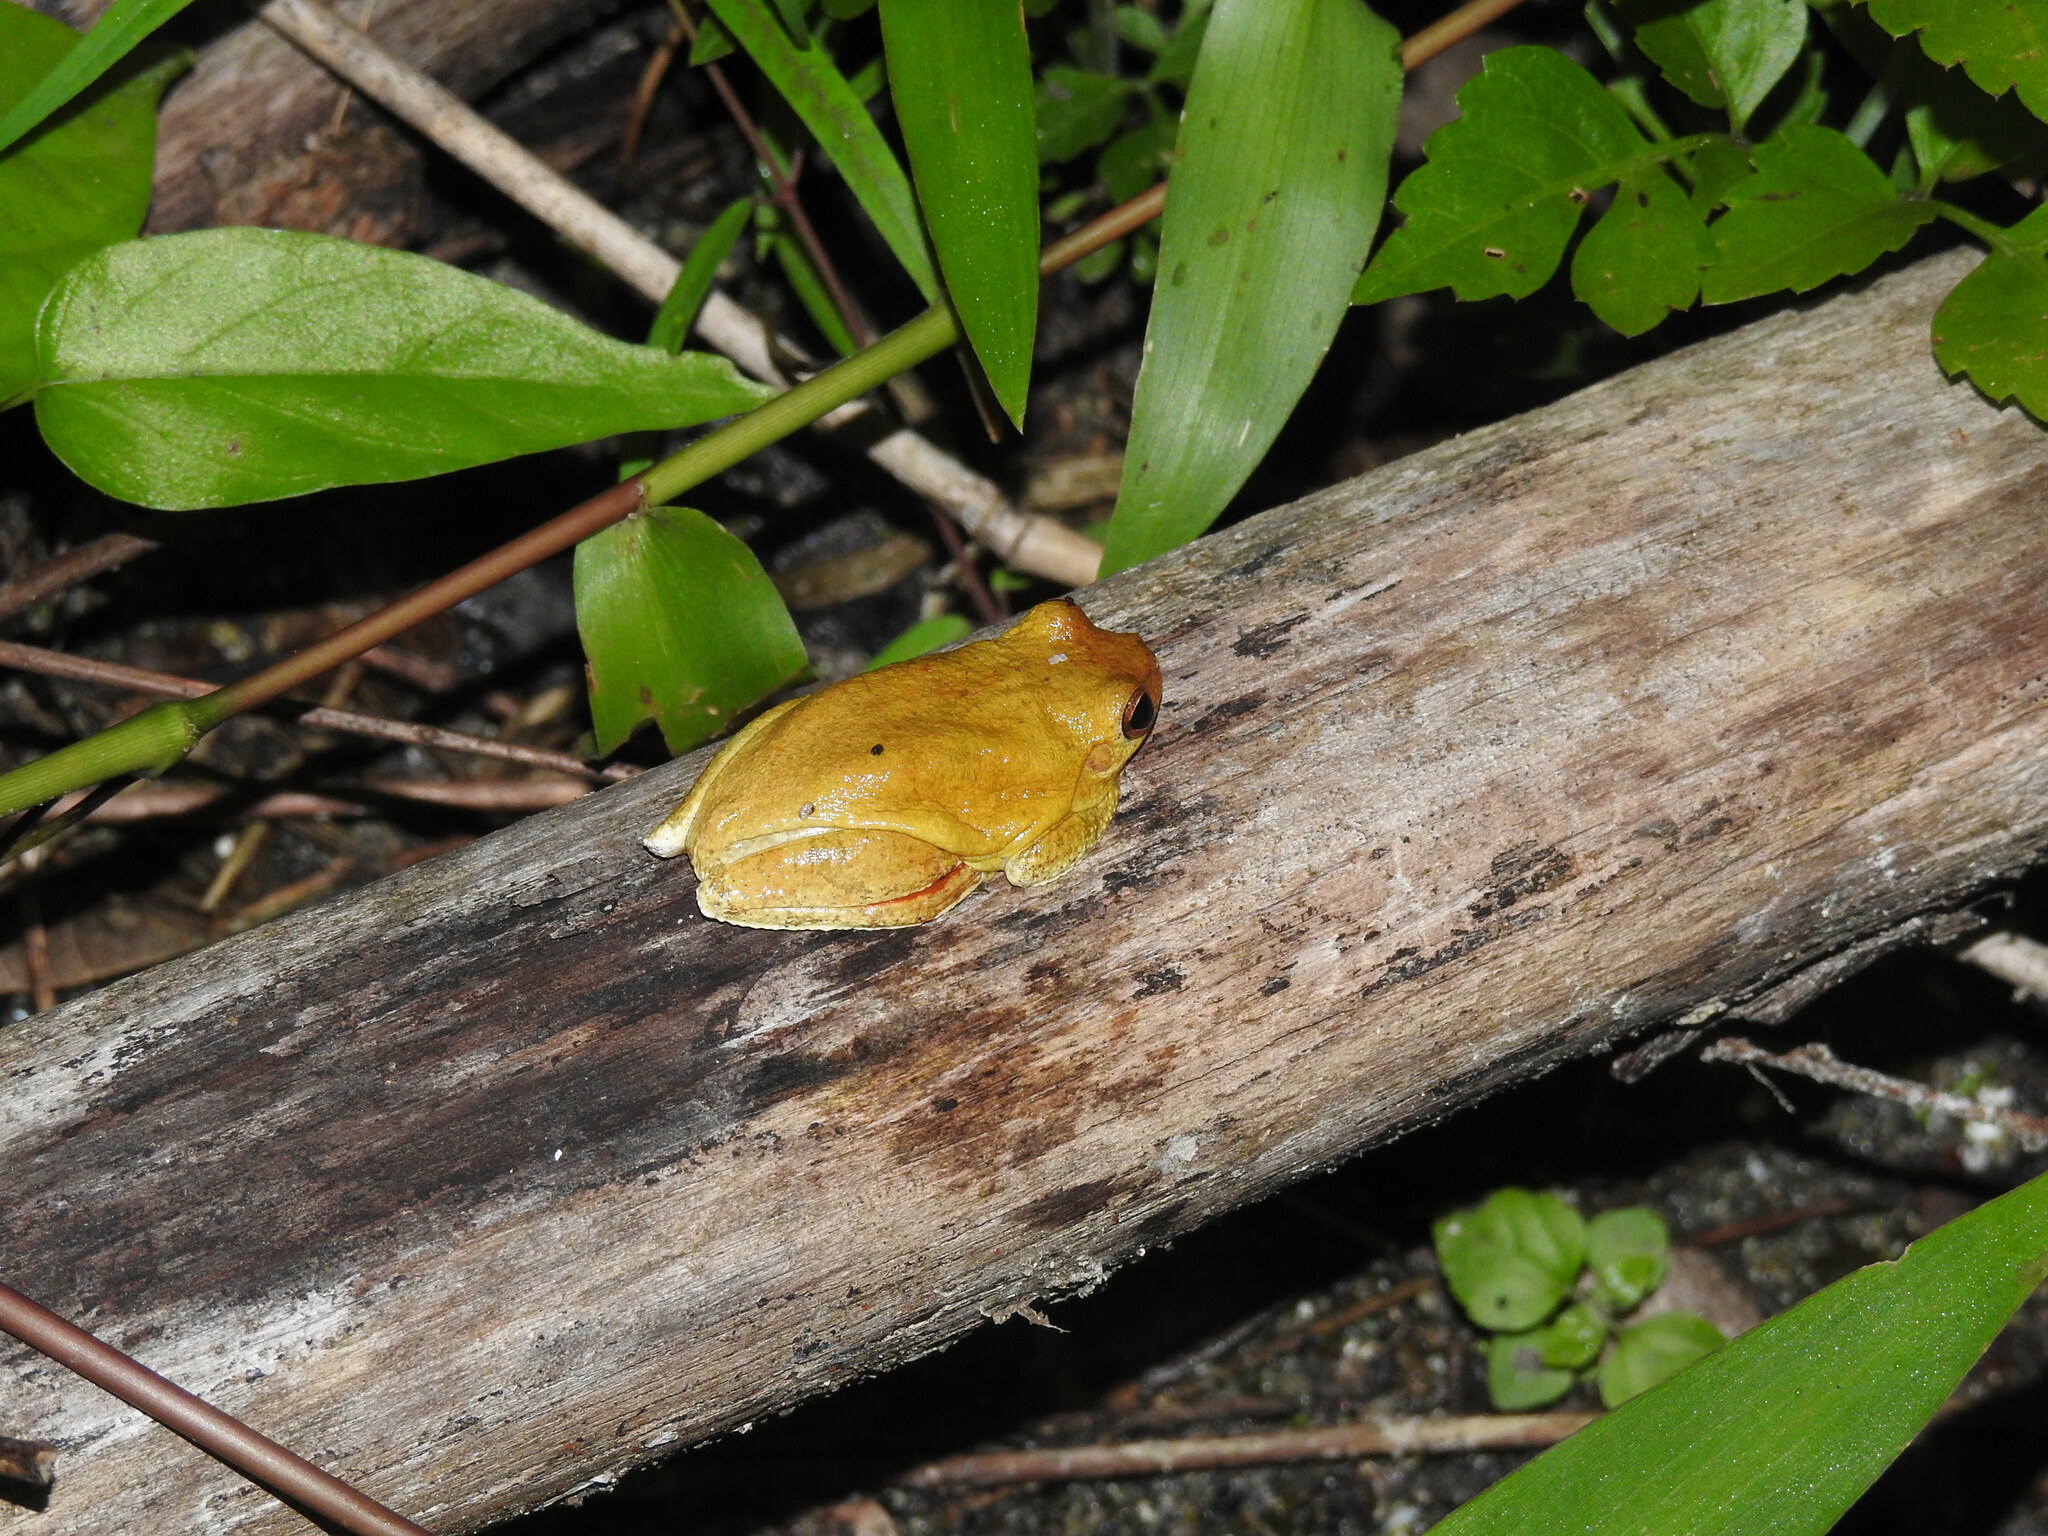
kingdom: Animalia
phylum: Chordata
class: Amphibia
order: Anura
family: Hylidae
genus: Tlalocohyla
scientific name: Tlalocohyla loquax
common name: Loquacious treefrog
